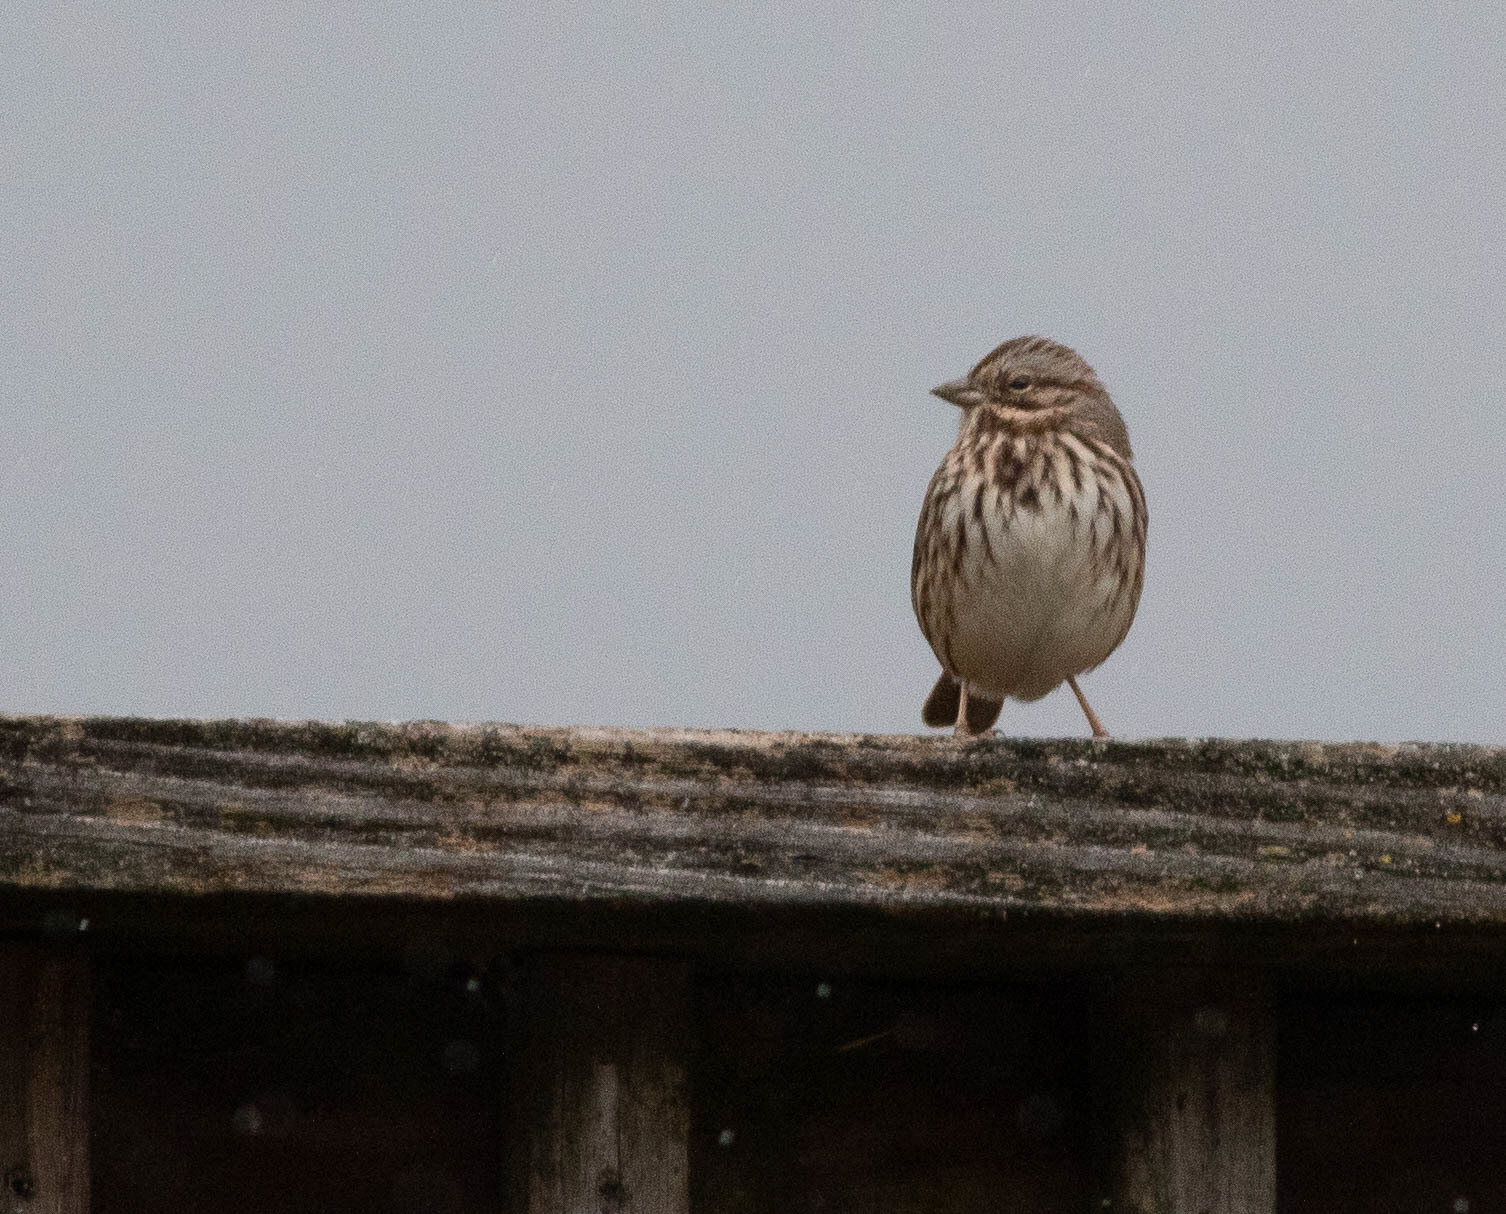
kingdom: Animalia
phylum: Chordata
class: Aves
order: Passeriformes
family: Passerellidae
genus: Melospiza
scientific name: Melospiza melodia
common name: Song sparrow
